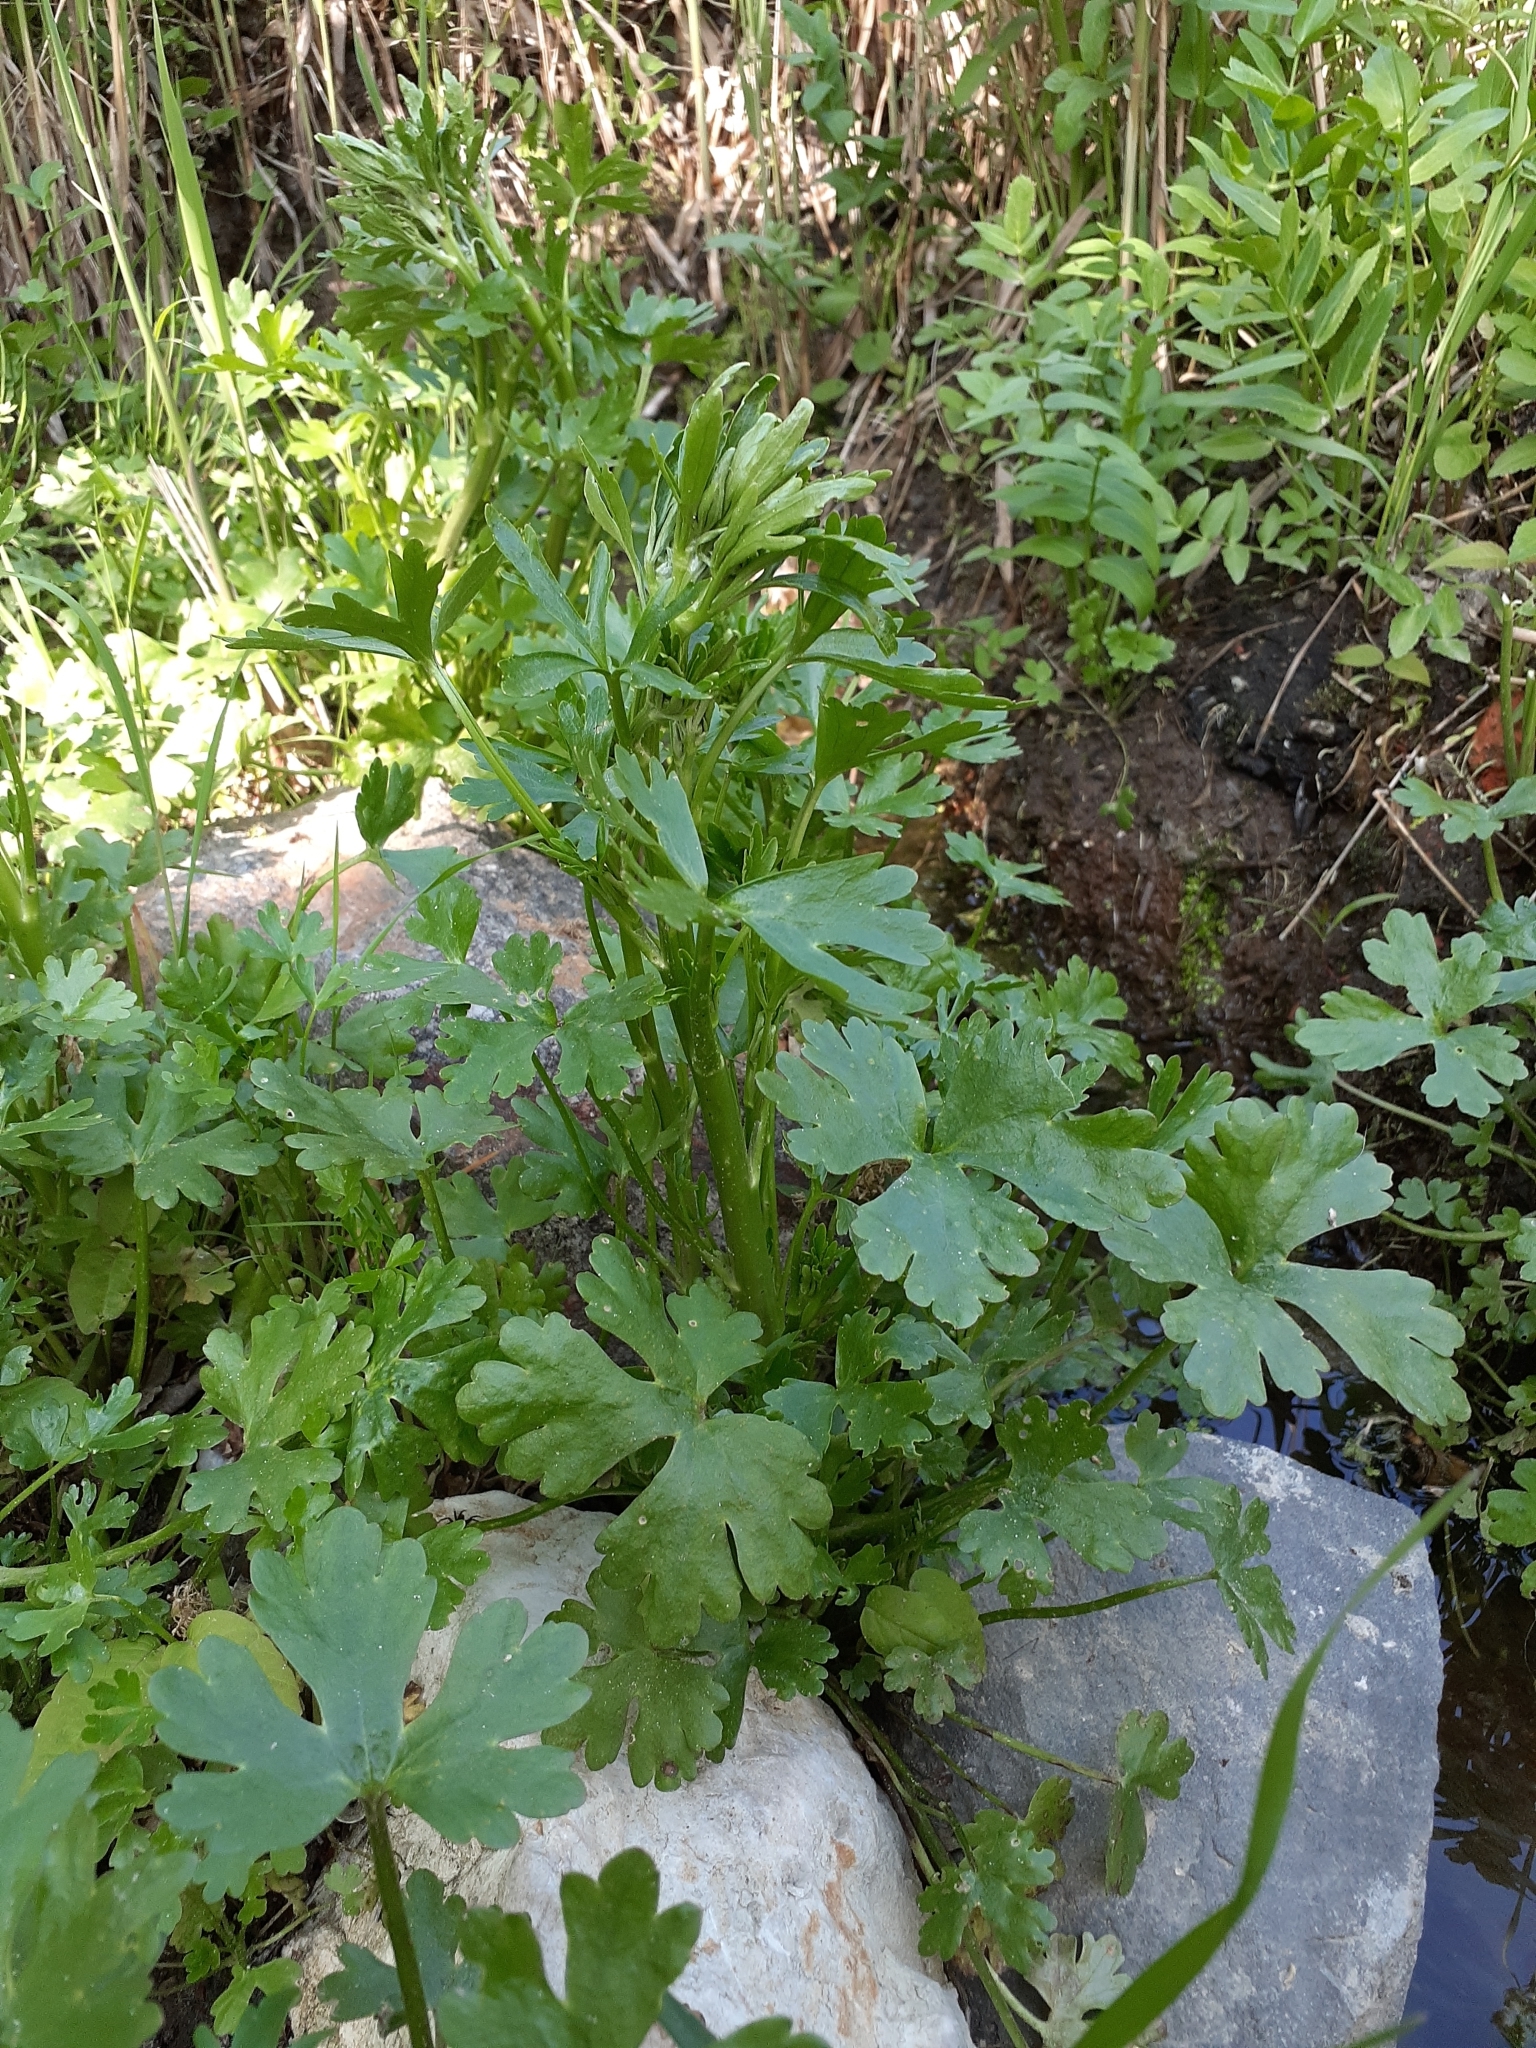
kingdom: Plantae
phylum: Tracheophyta
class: Magnoliopsida
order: Ranunculales
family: Ranunculaceae
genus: Ranunculus
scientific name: Ranunculus sceleratus
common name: Celery-leaved buttercup
